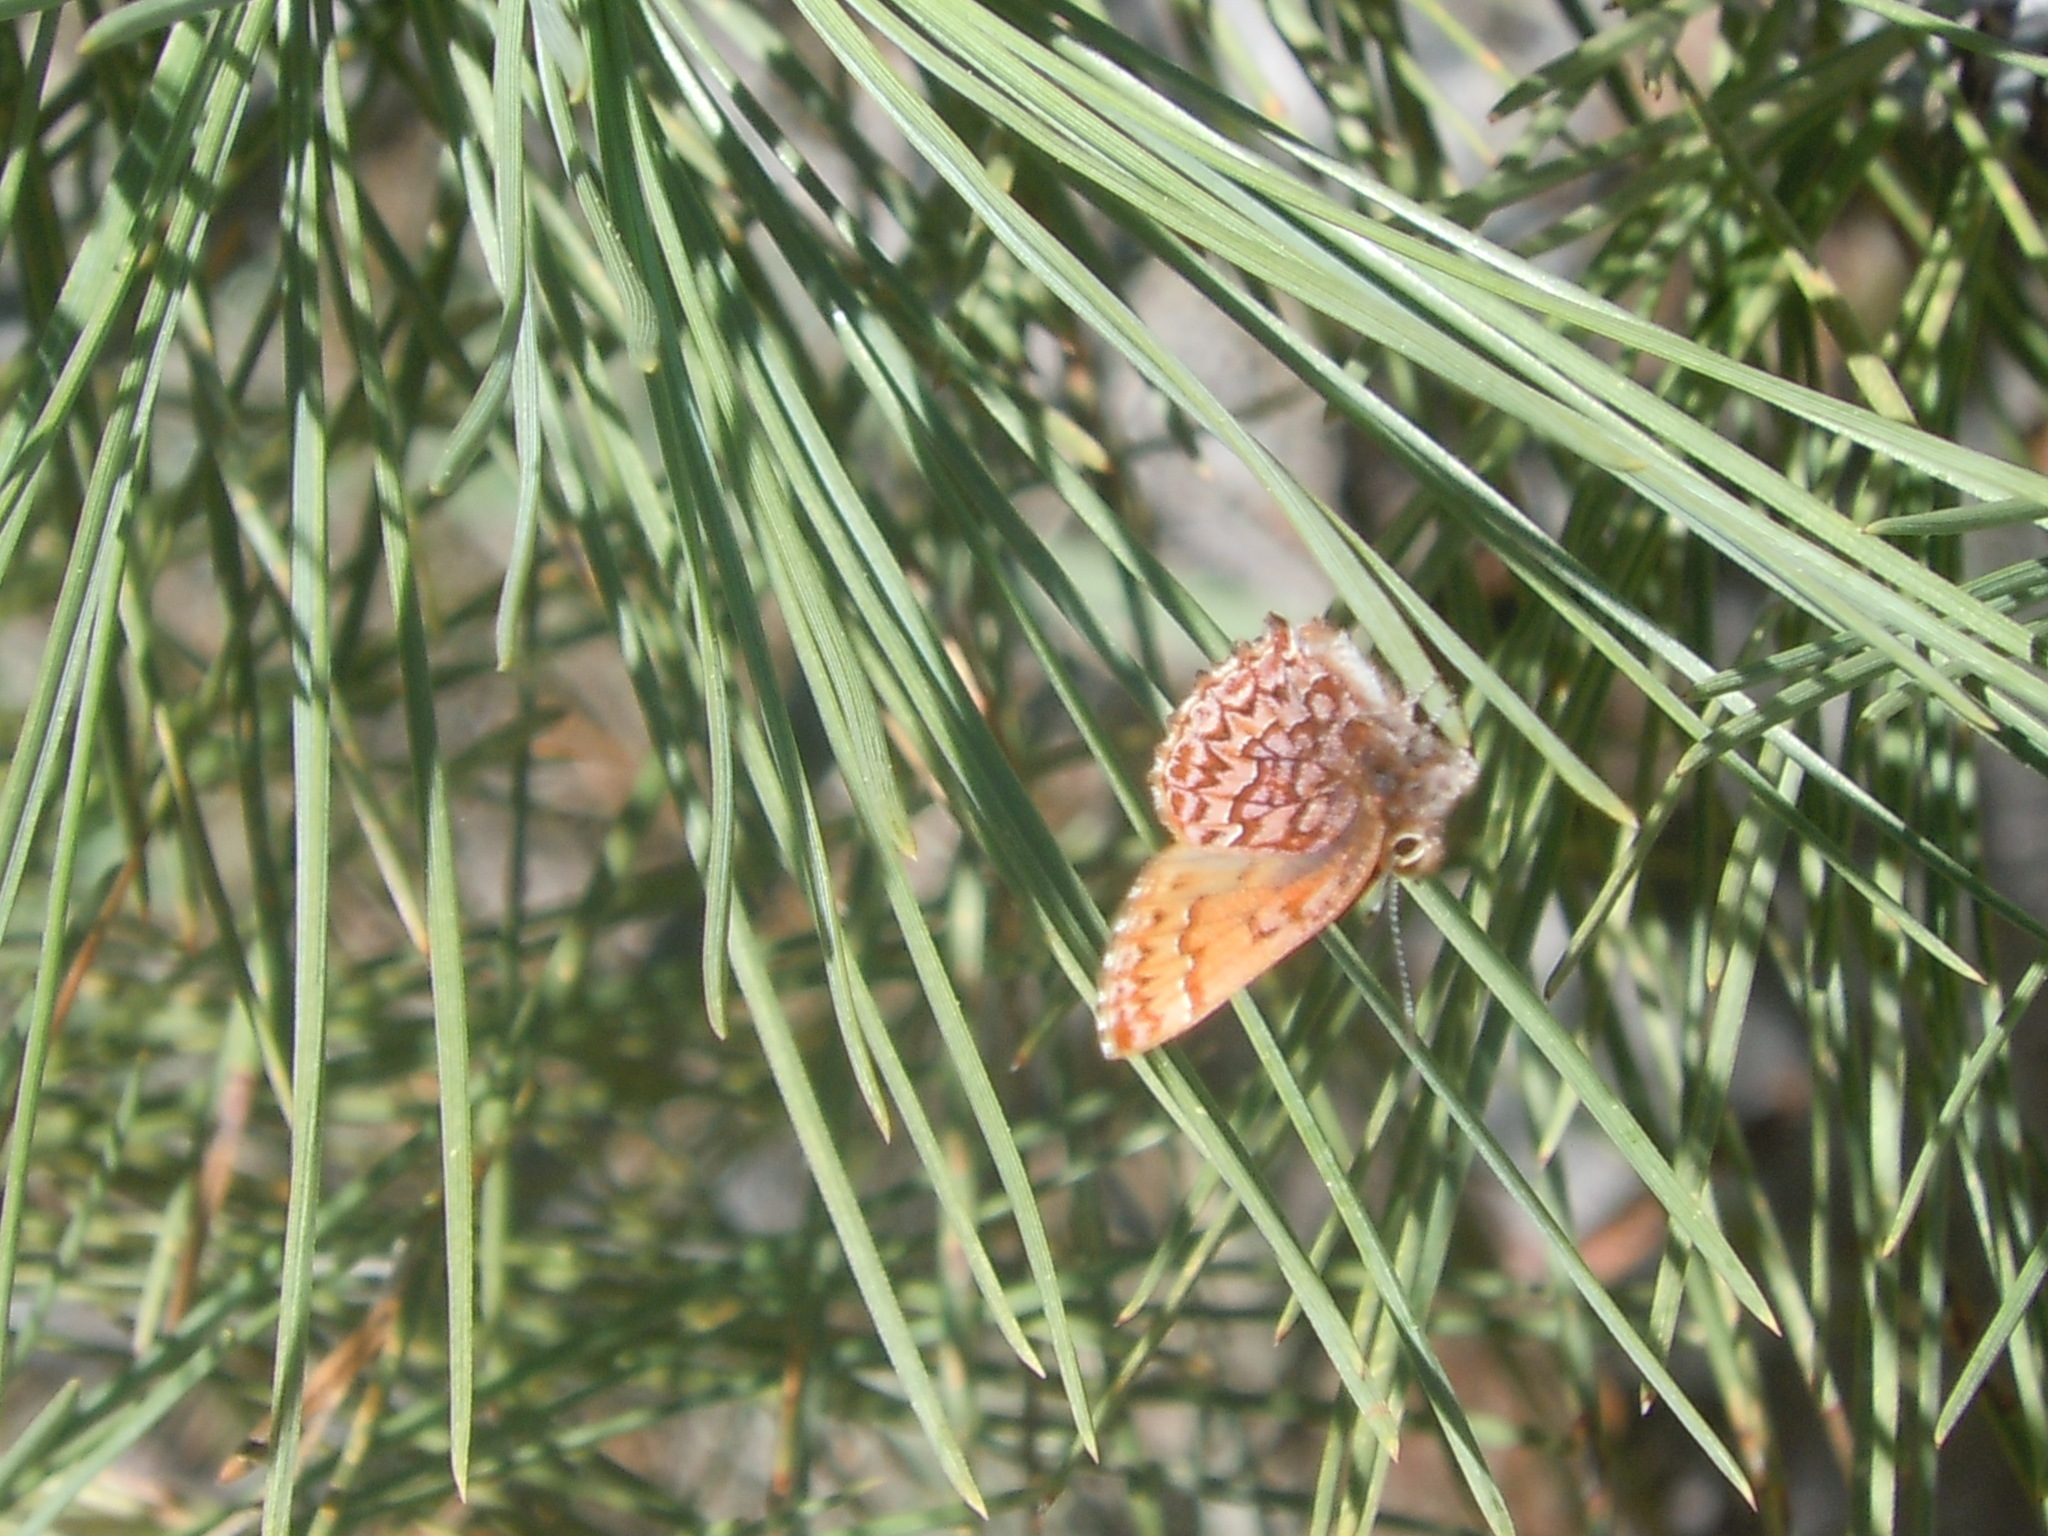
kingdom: Animalia
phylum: Arthropoda
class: Insecta
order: Lepidoptera
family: Lycaenidae
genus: Incisalia
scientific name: Incisalia eryphon
